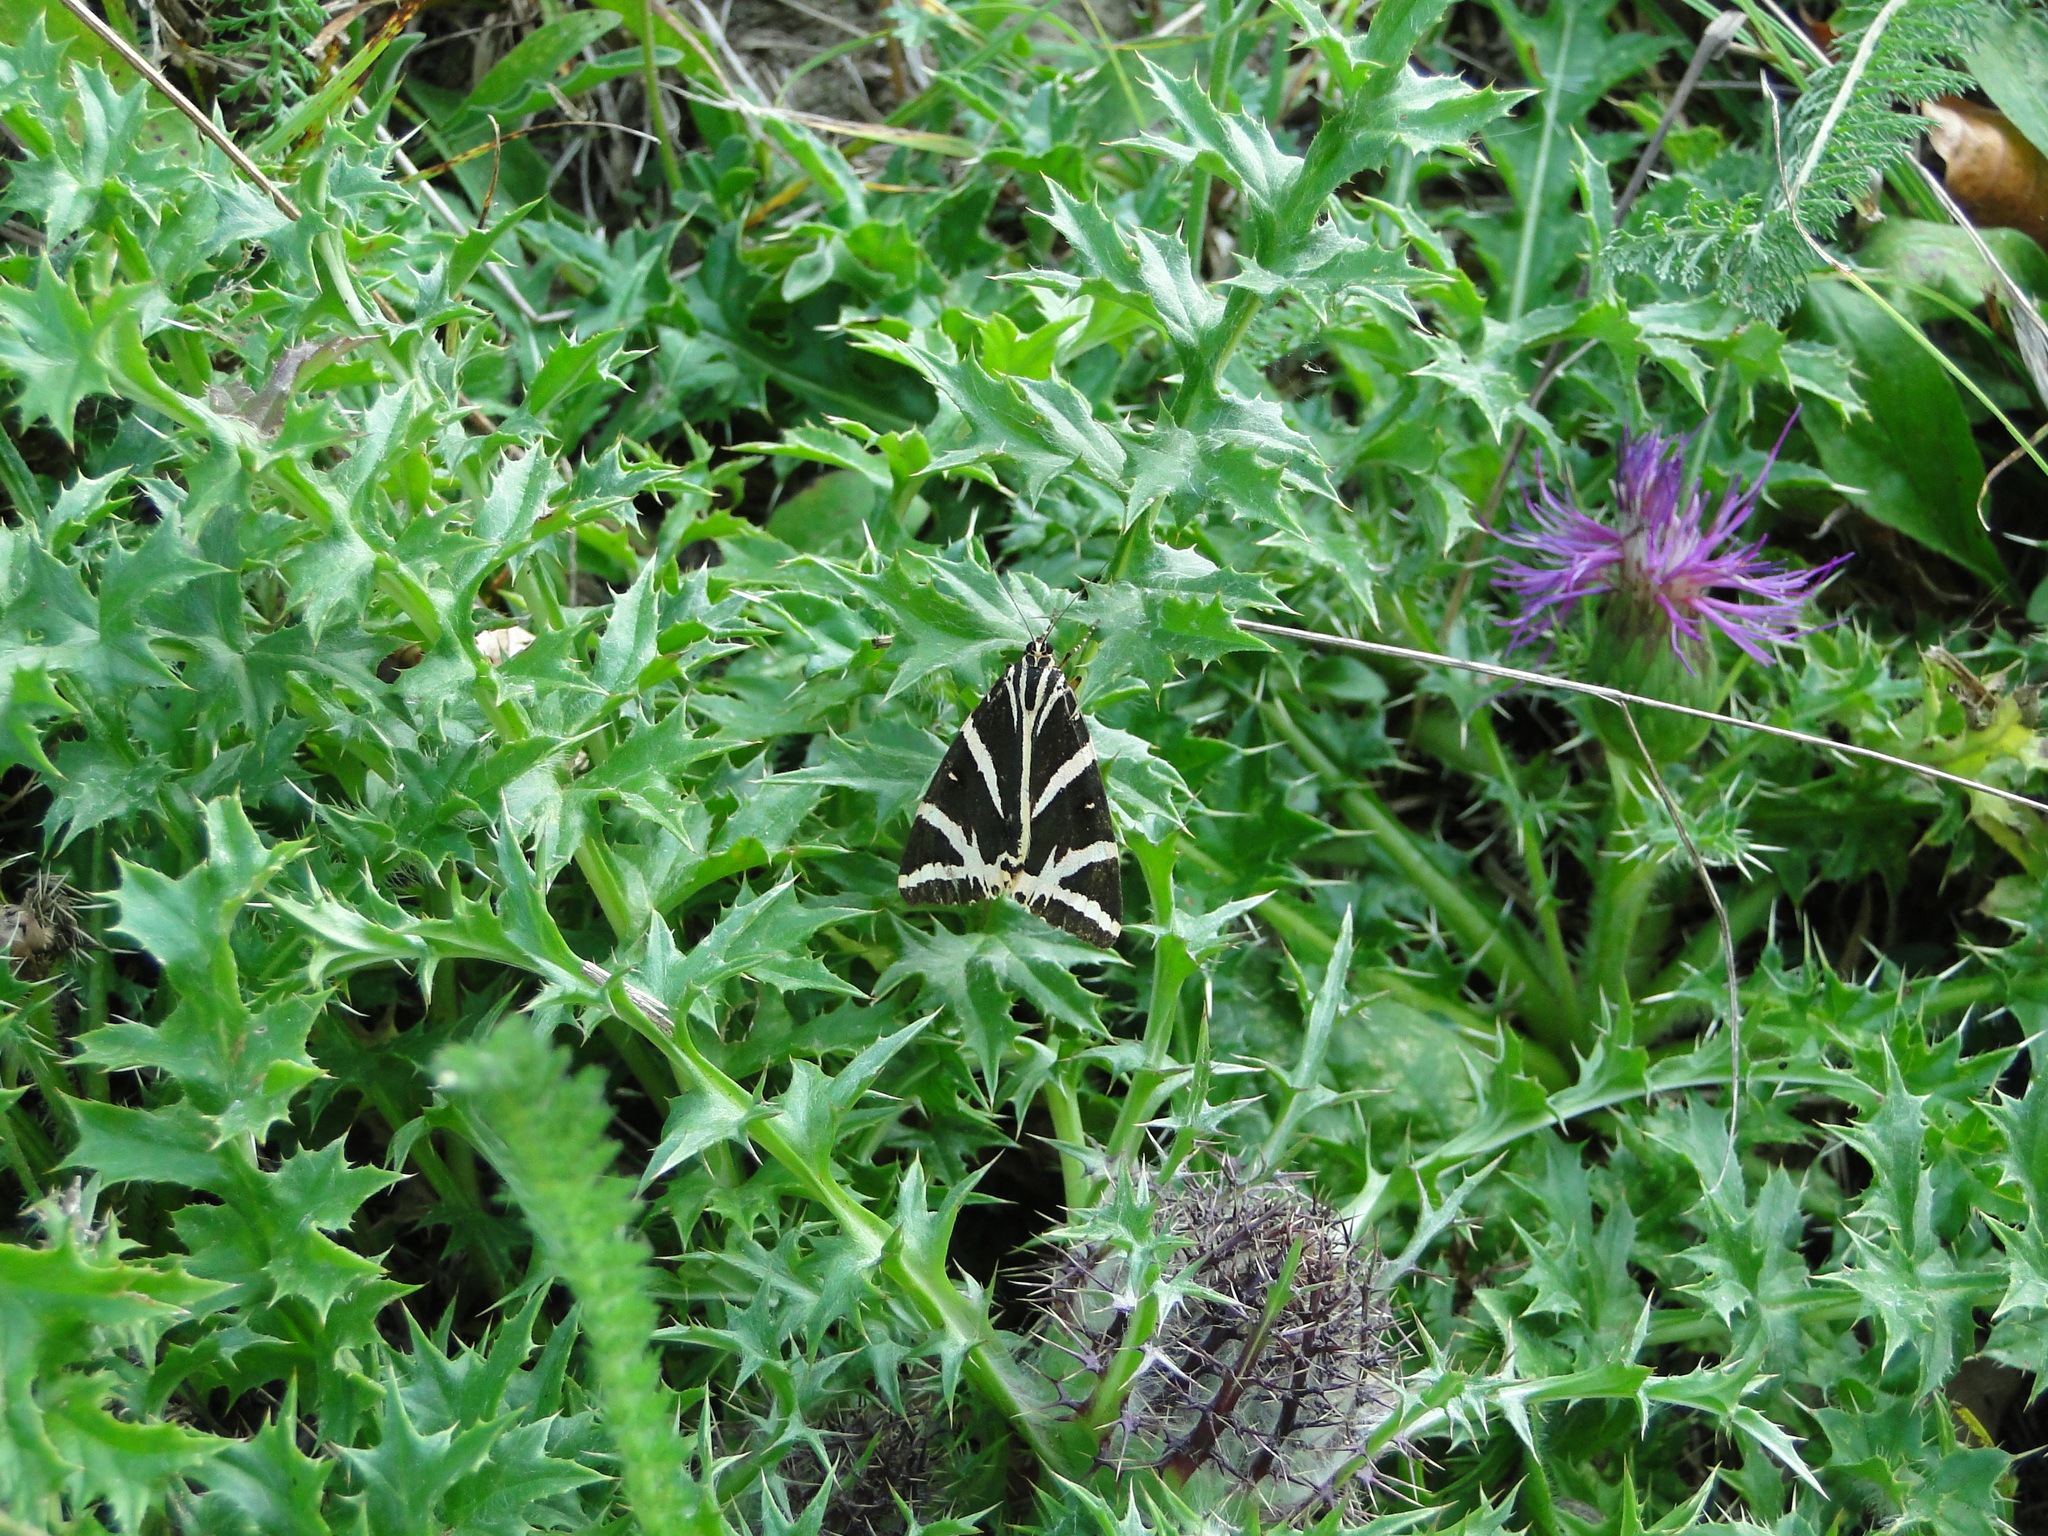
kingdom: Animalia
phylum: Arthropoda
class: Insecta
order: Lepidoptera
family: Erebidae
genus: Euplagia
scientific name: Euplagia quadripunctaria
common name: Jersey tiger
